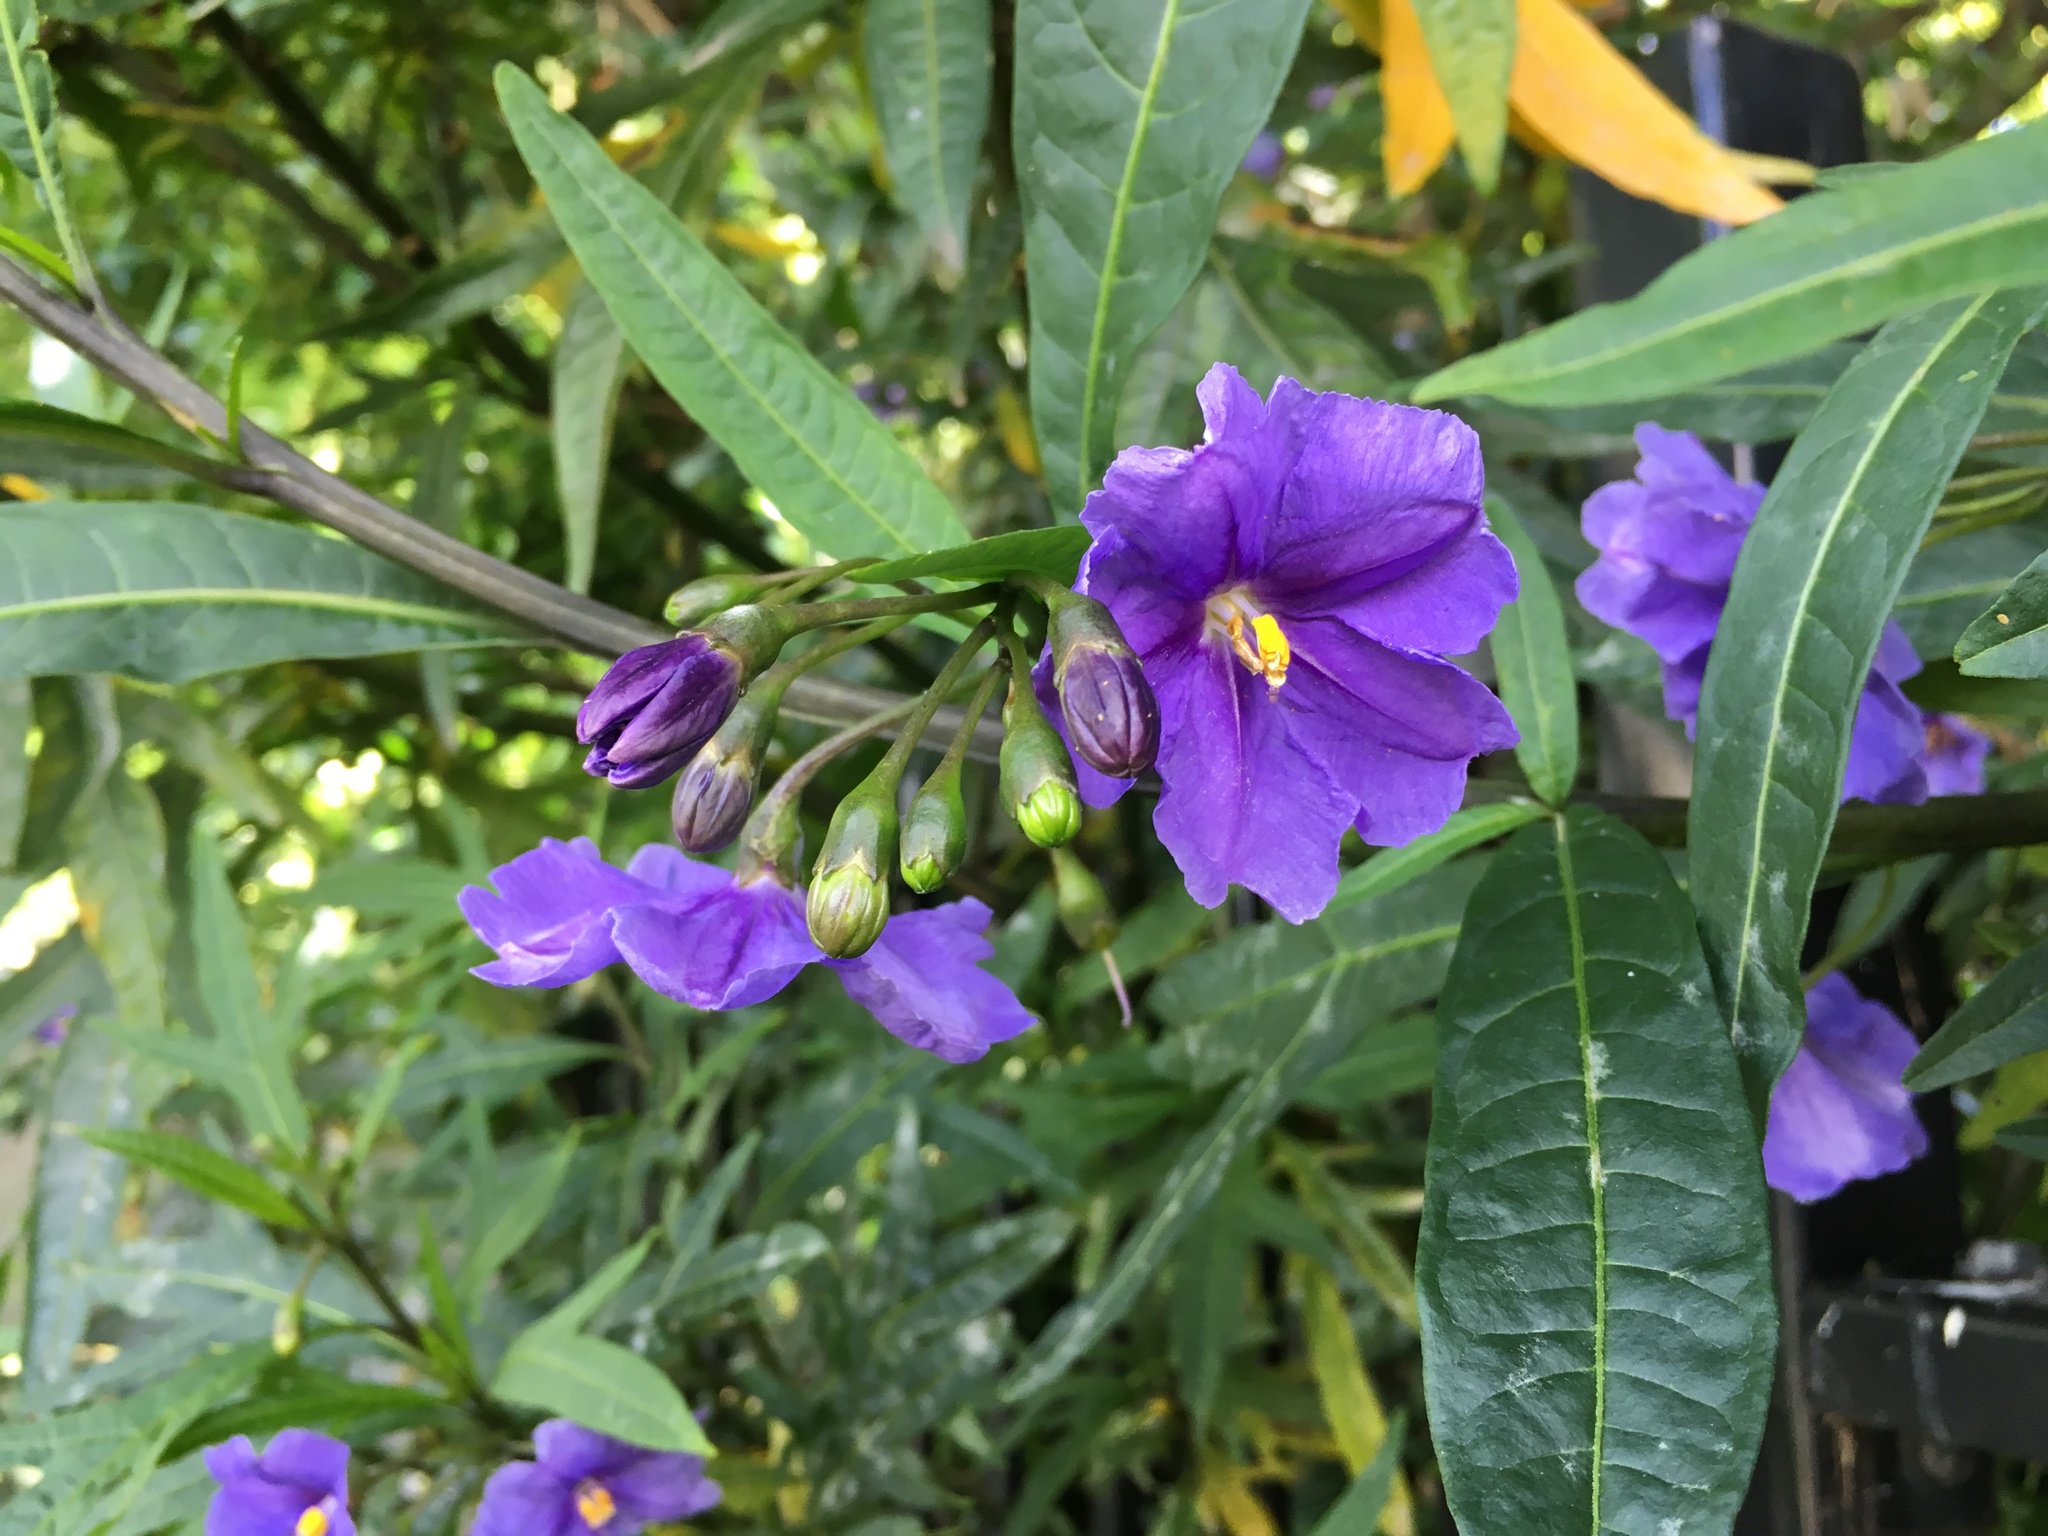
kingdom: Plantae
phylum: Tracheophyta
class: Magnoliopsida
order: Solanales
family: Solanaceae
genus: Solanum
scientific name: Solanum laciniatum
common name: Kangaroo-apple
